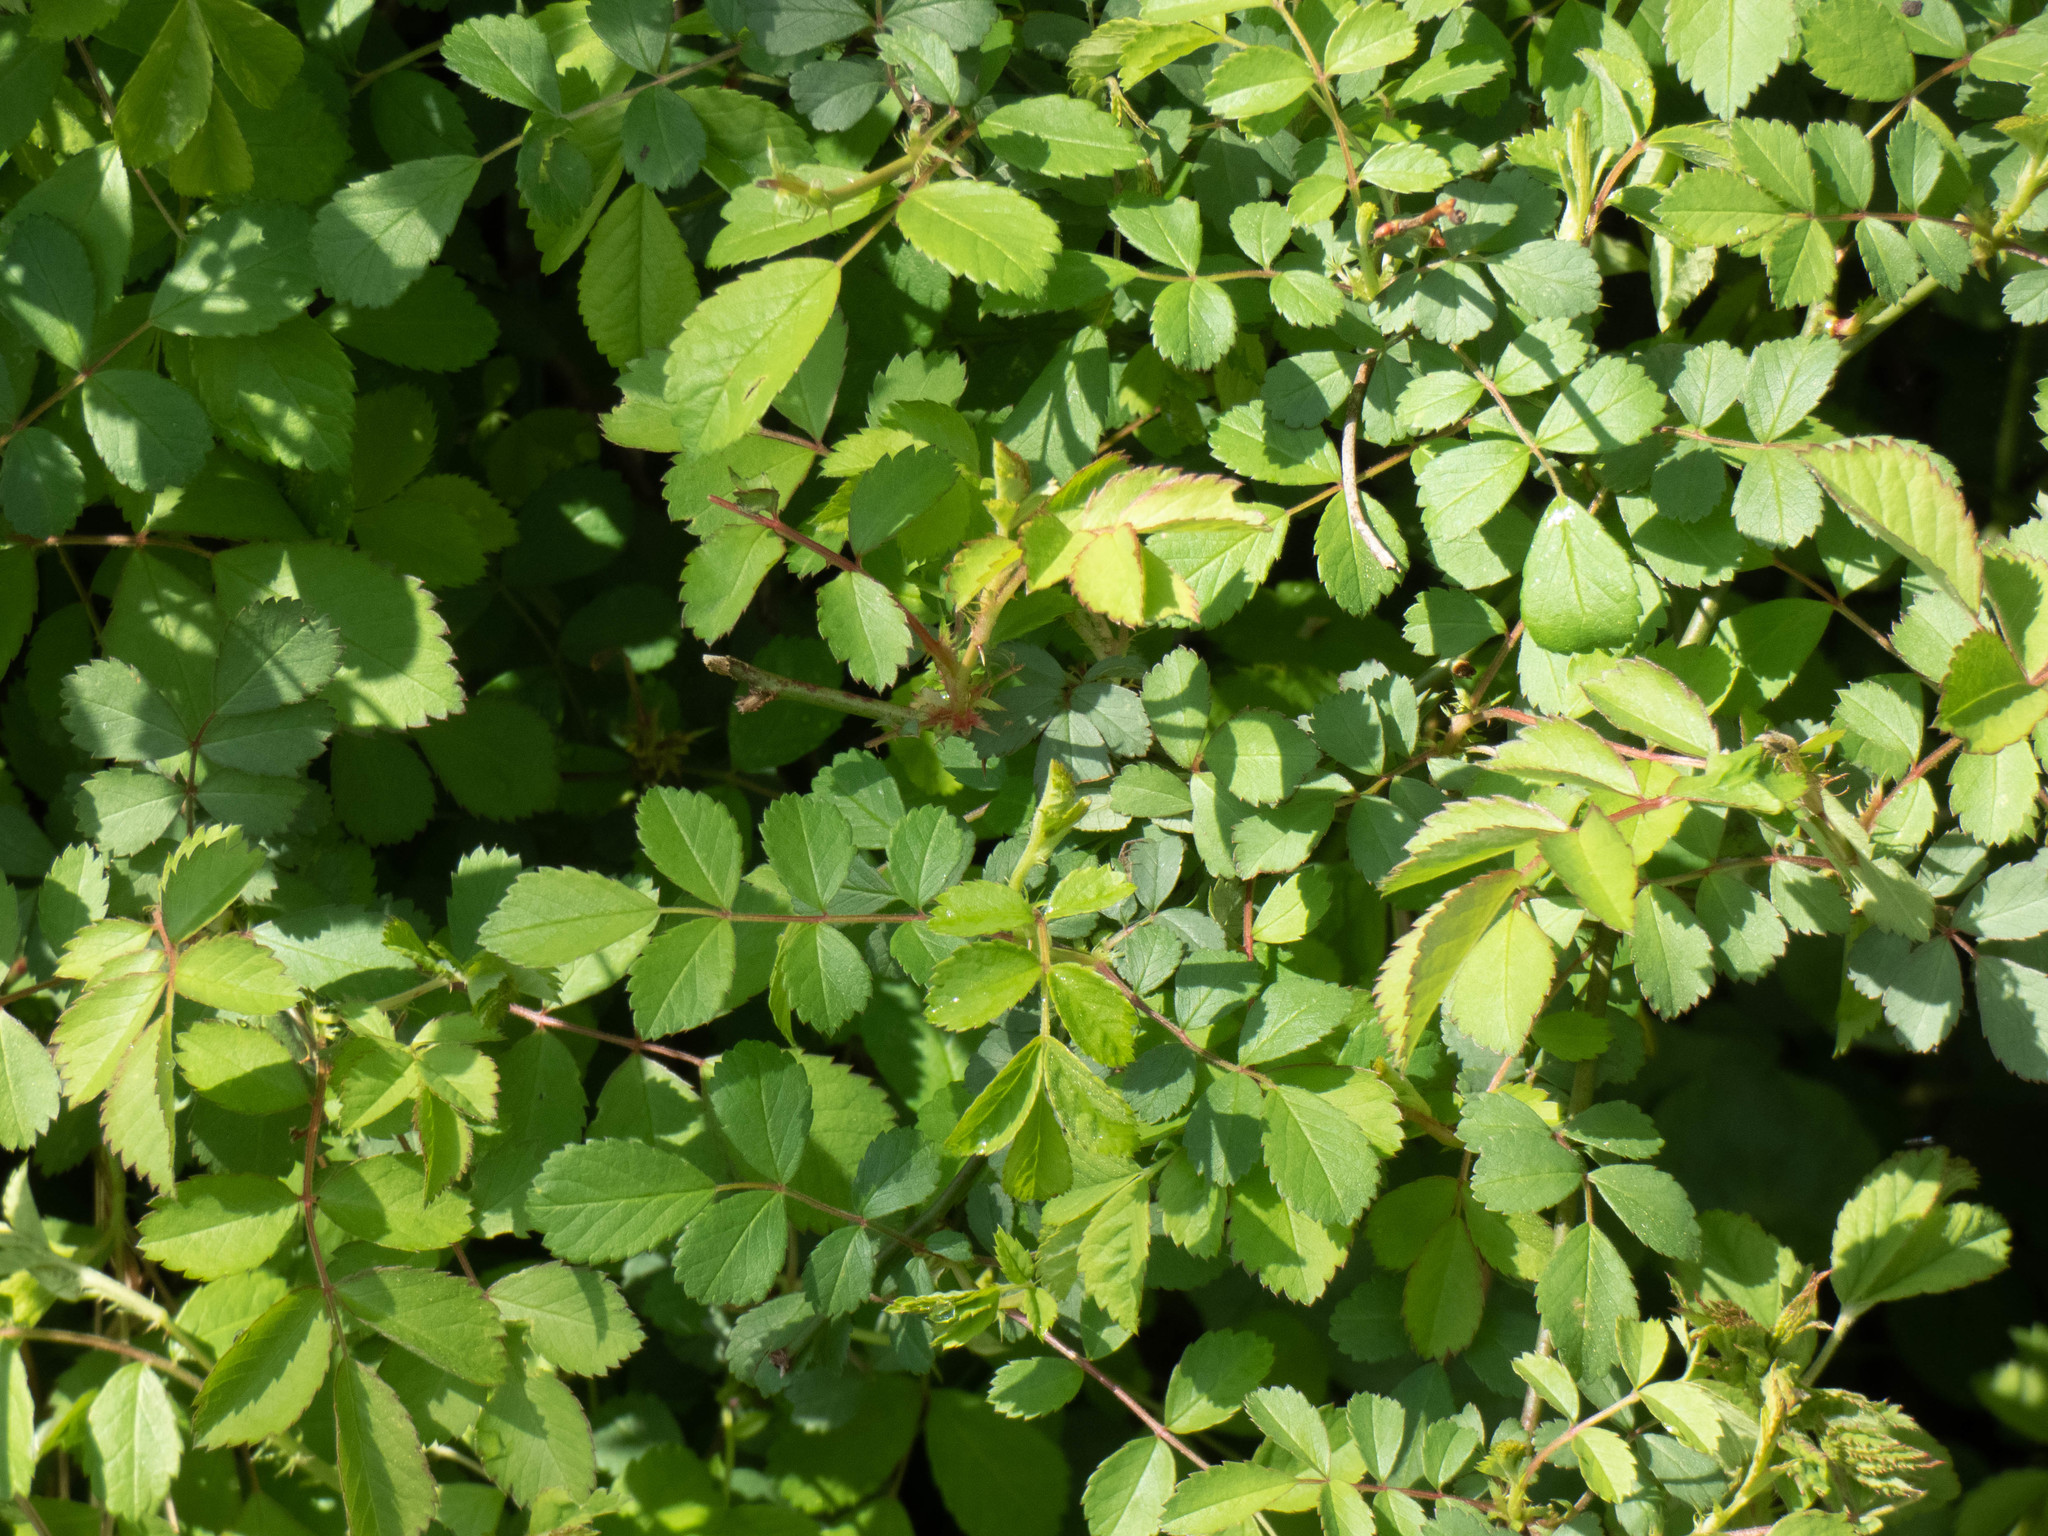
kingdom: Plantae
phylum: Tracheophyta
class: Magnoliopsida
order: Rosales
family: Rosaceae
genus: Rosa
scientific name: Rosa multiflora
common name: Multiflora rose
